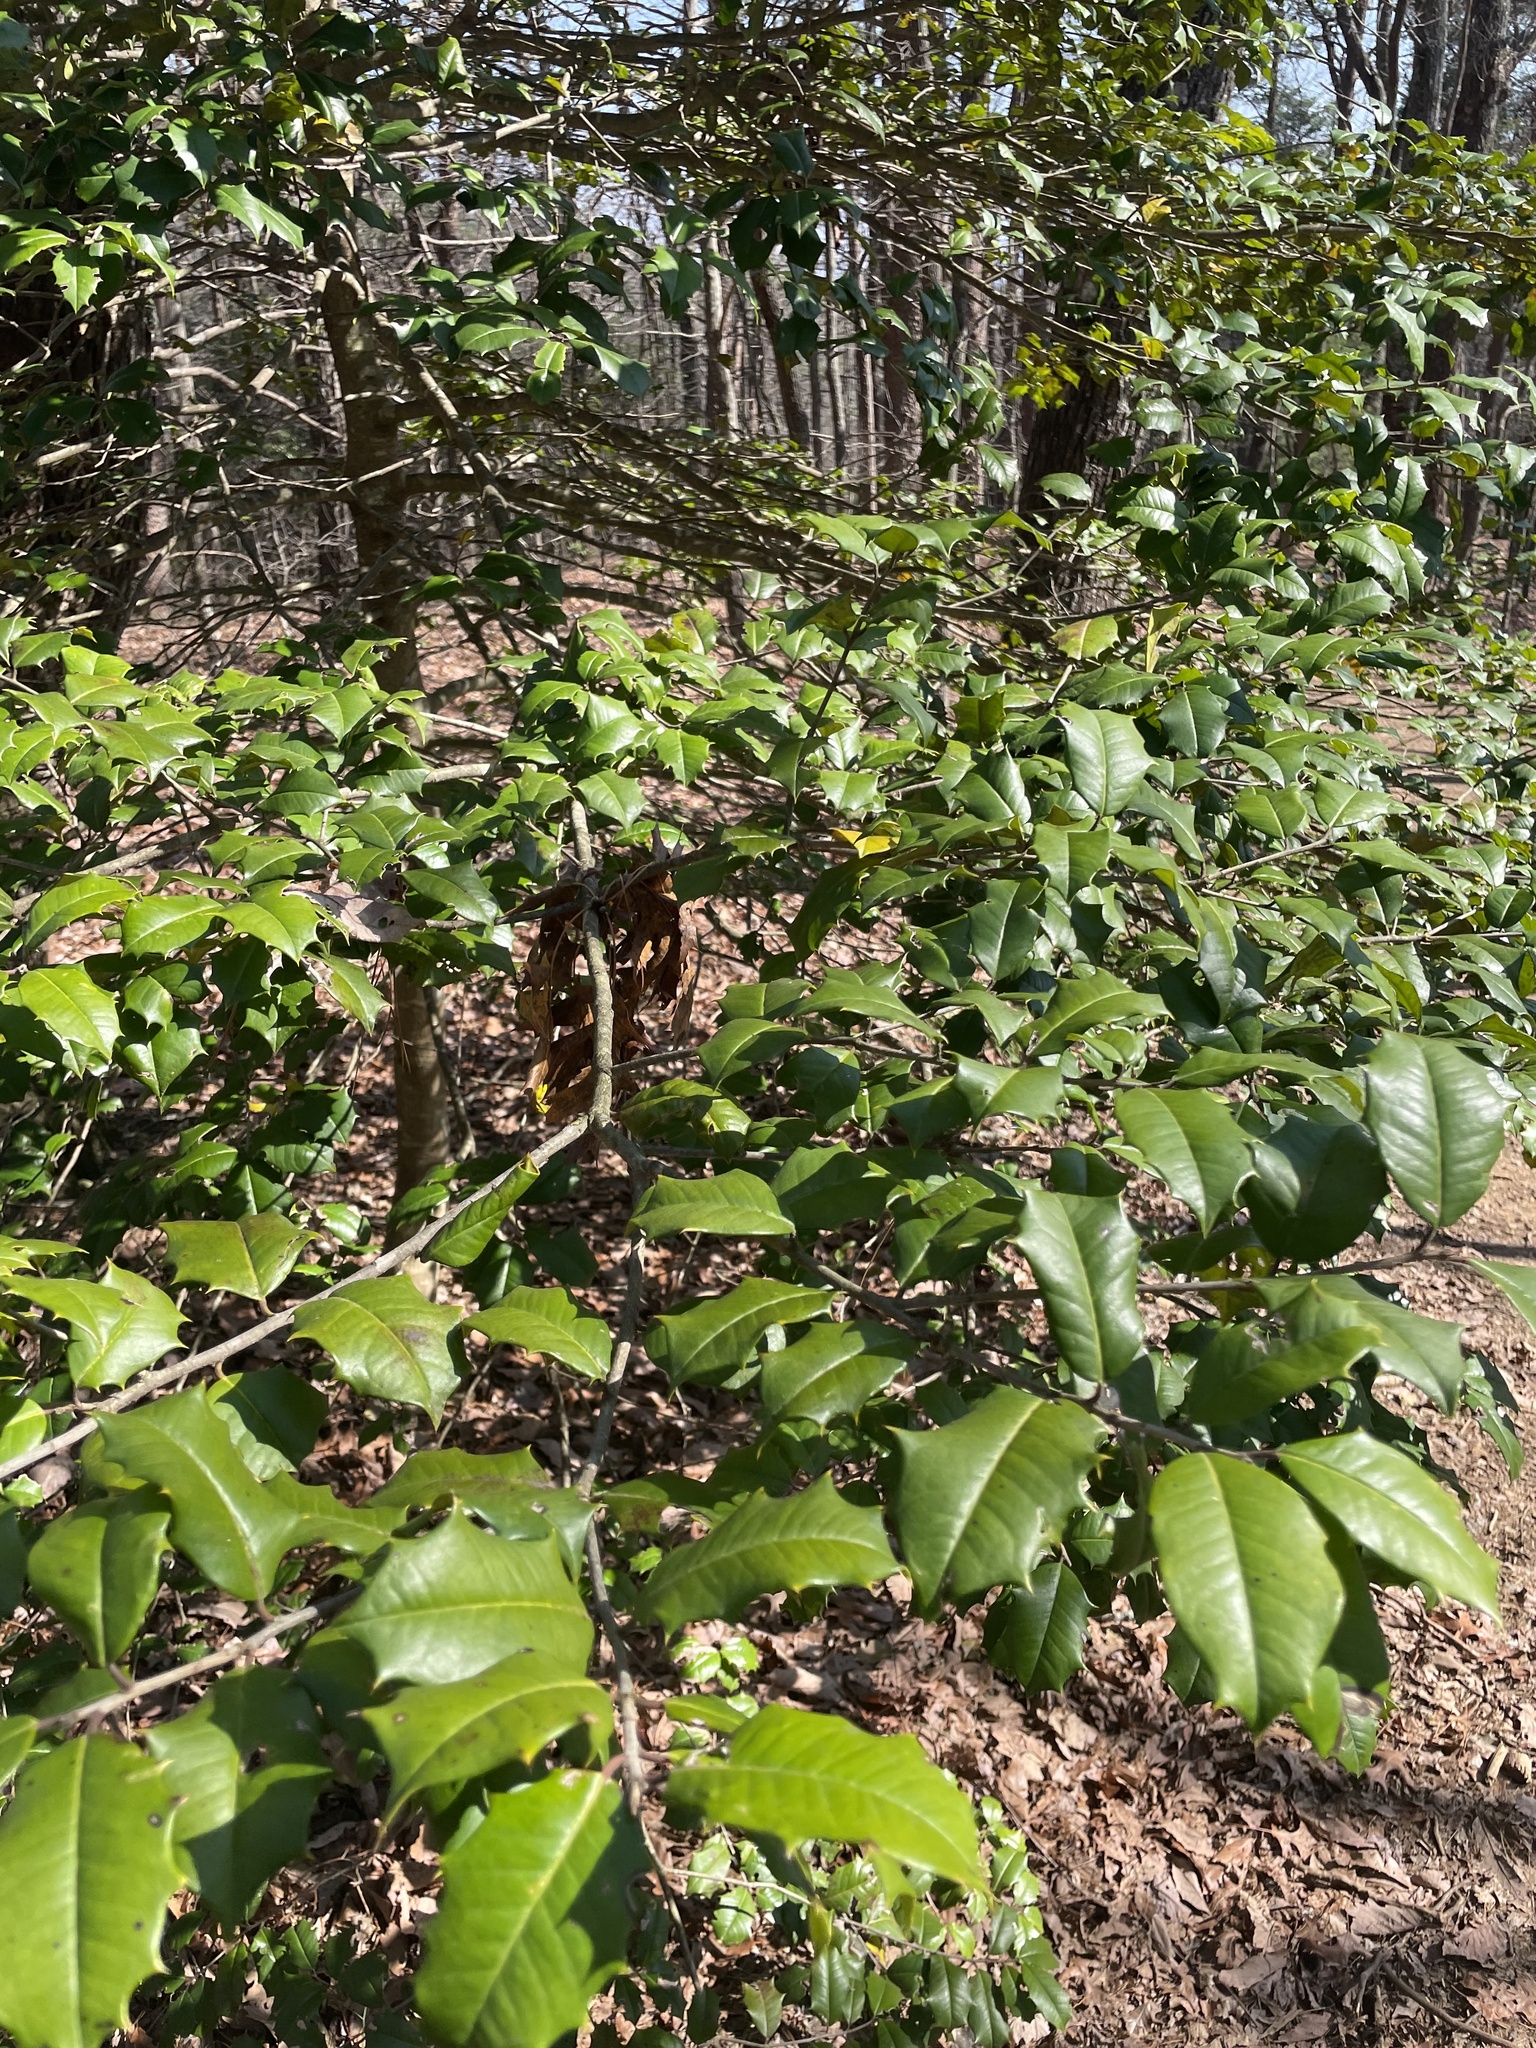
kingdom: Plantae
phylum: Tracheophyta
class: Magnoliopsida
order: Aquifoliales
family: Aquifoliaceae
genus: Ilex
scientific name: Ilex opaca
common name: American holly
